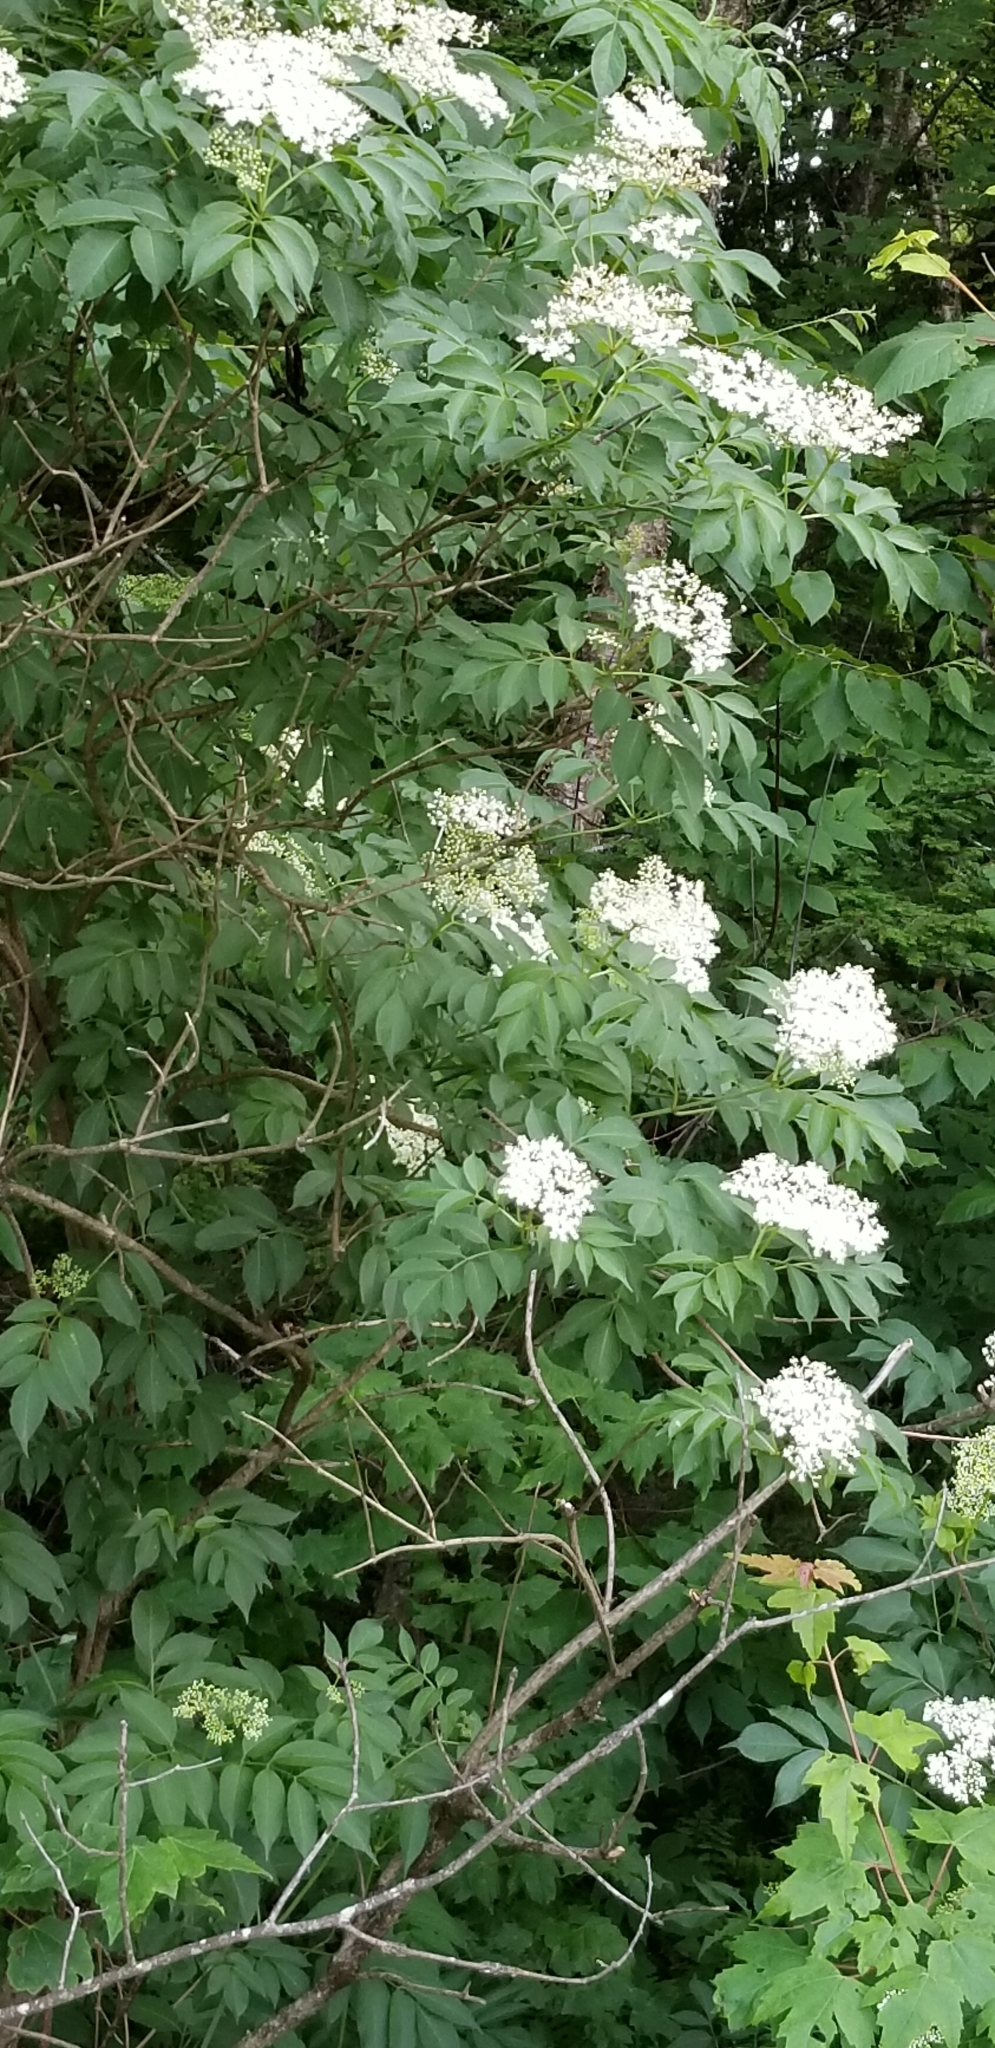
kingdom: Plantae
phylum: Tracheophyta
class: Magnoliopsida
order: Dipsacales
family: Viburnaceae
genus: Sambucus
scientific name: Sambucus canadensis
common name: American elder
